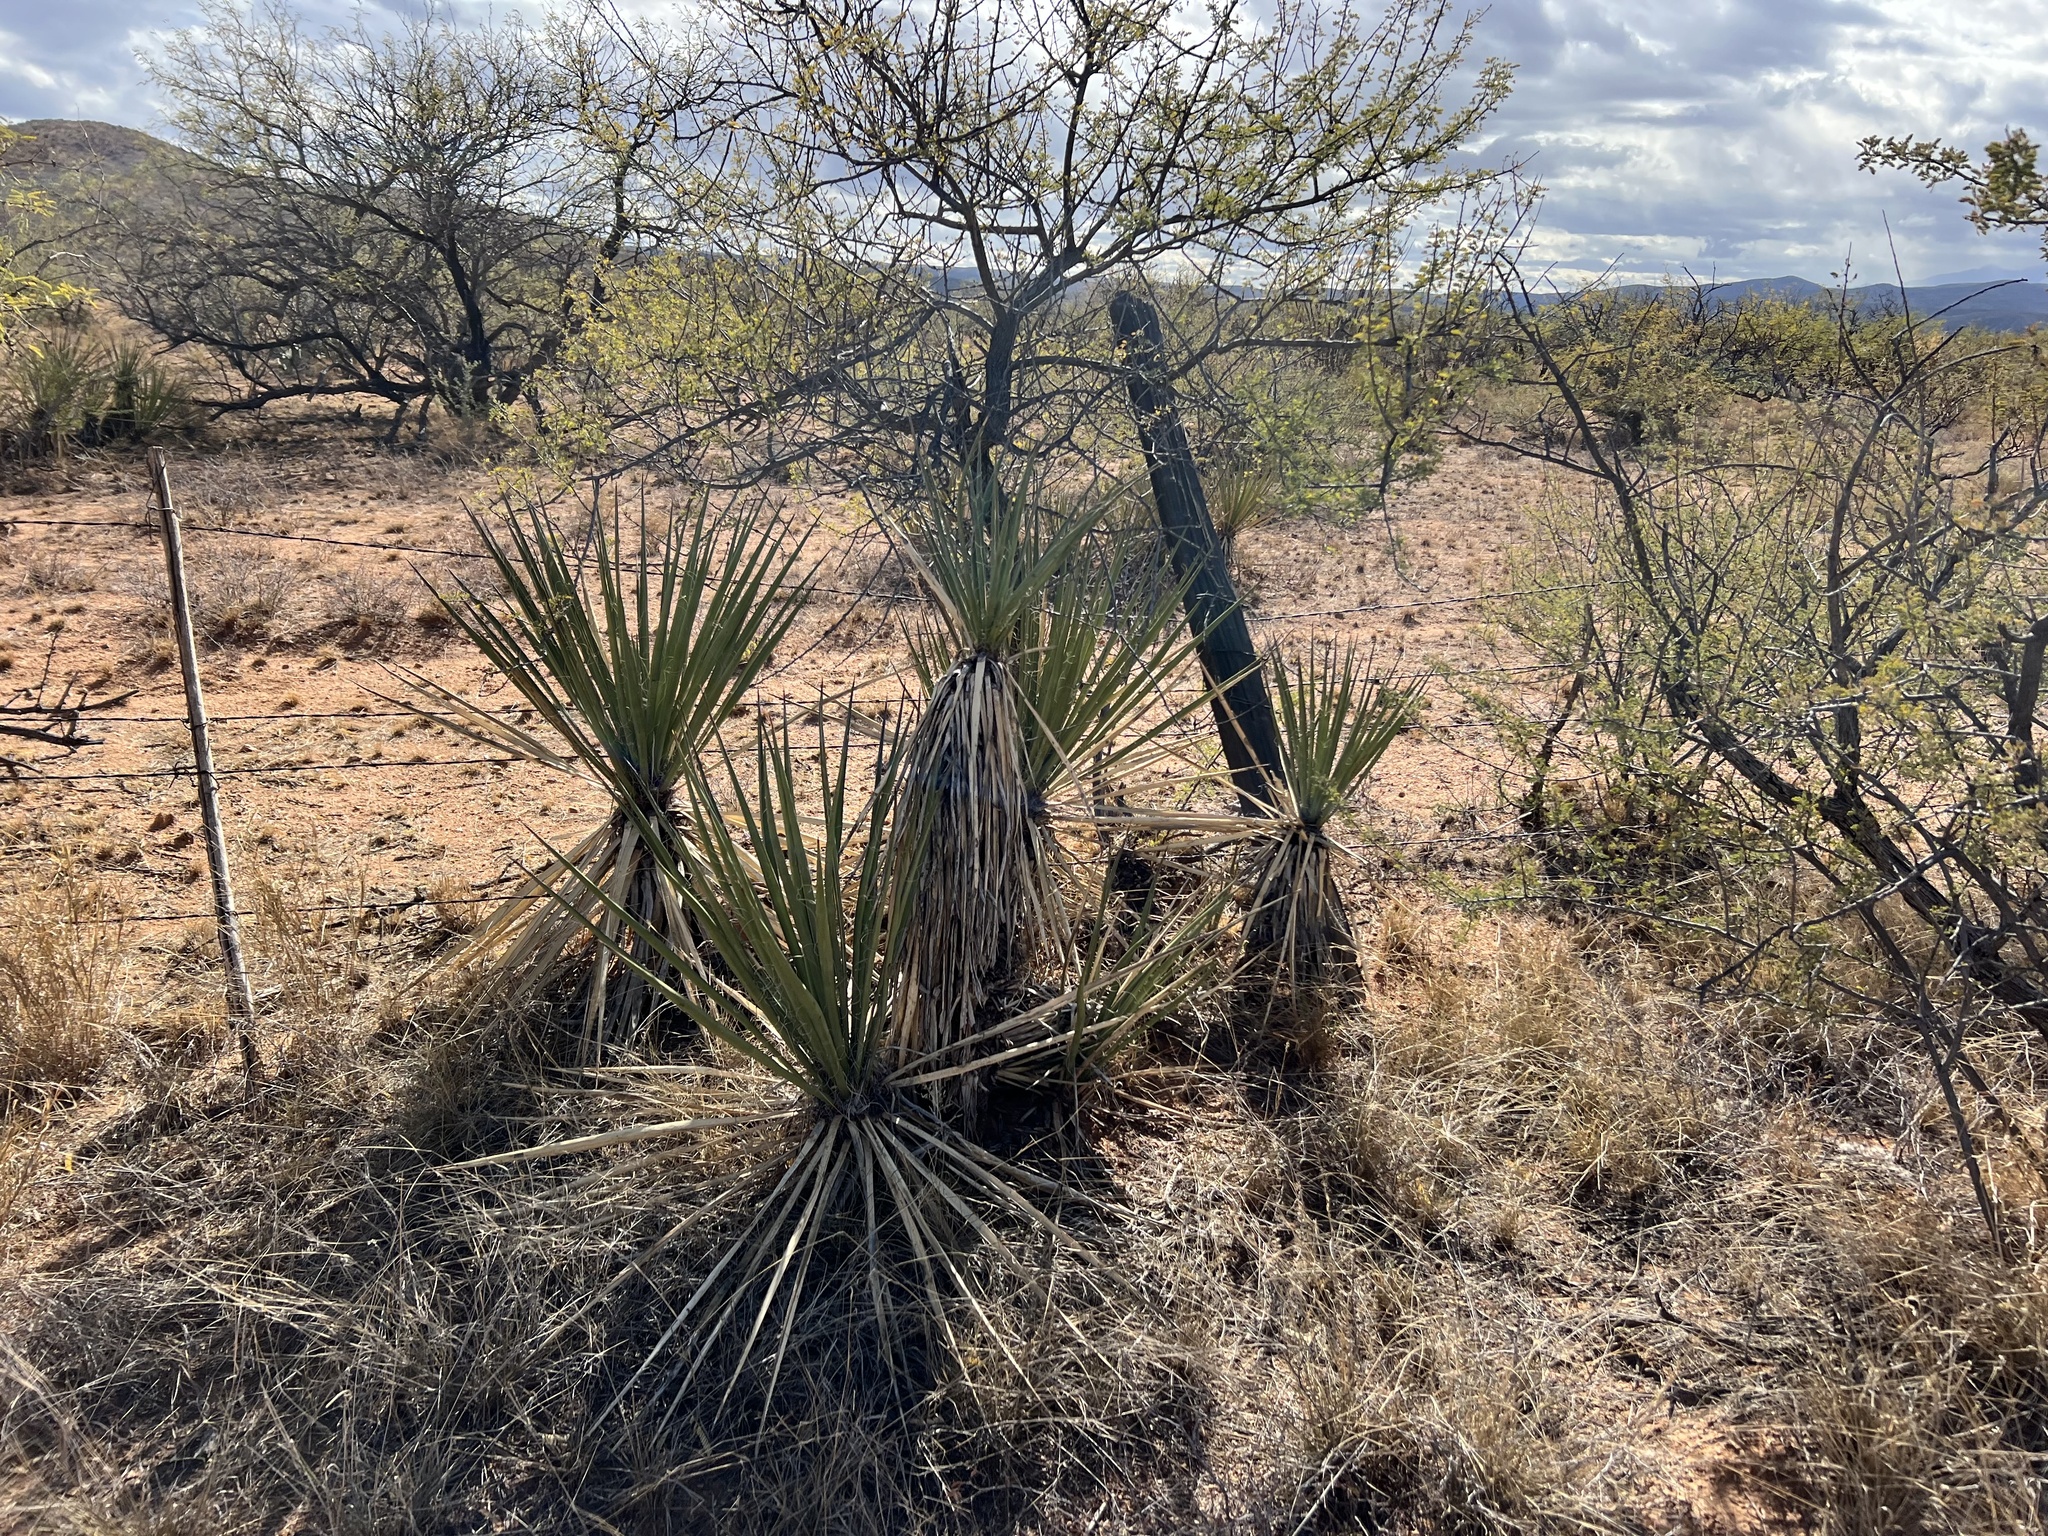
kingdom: Plantae
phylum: Tracheophyta
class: Liliopsida
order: Asparagales
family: Asparagaceae
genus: Yucca
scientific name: Yucca elata
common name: Palmella
